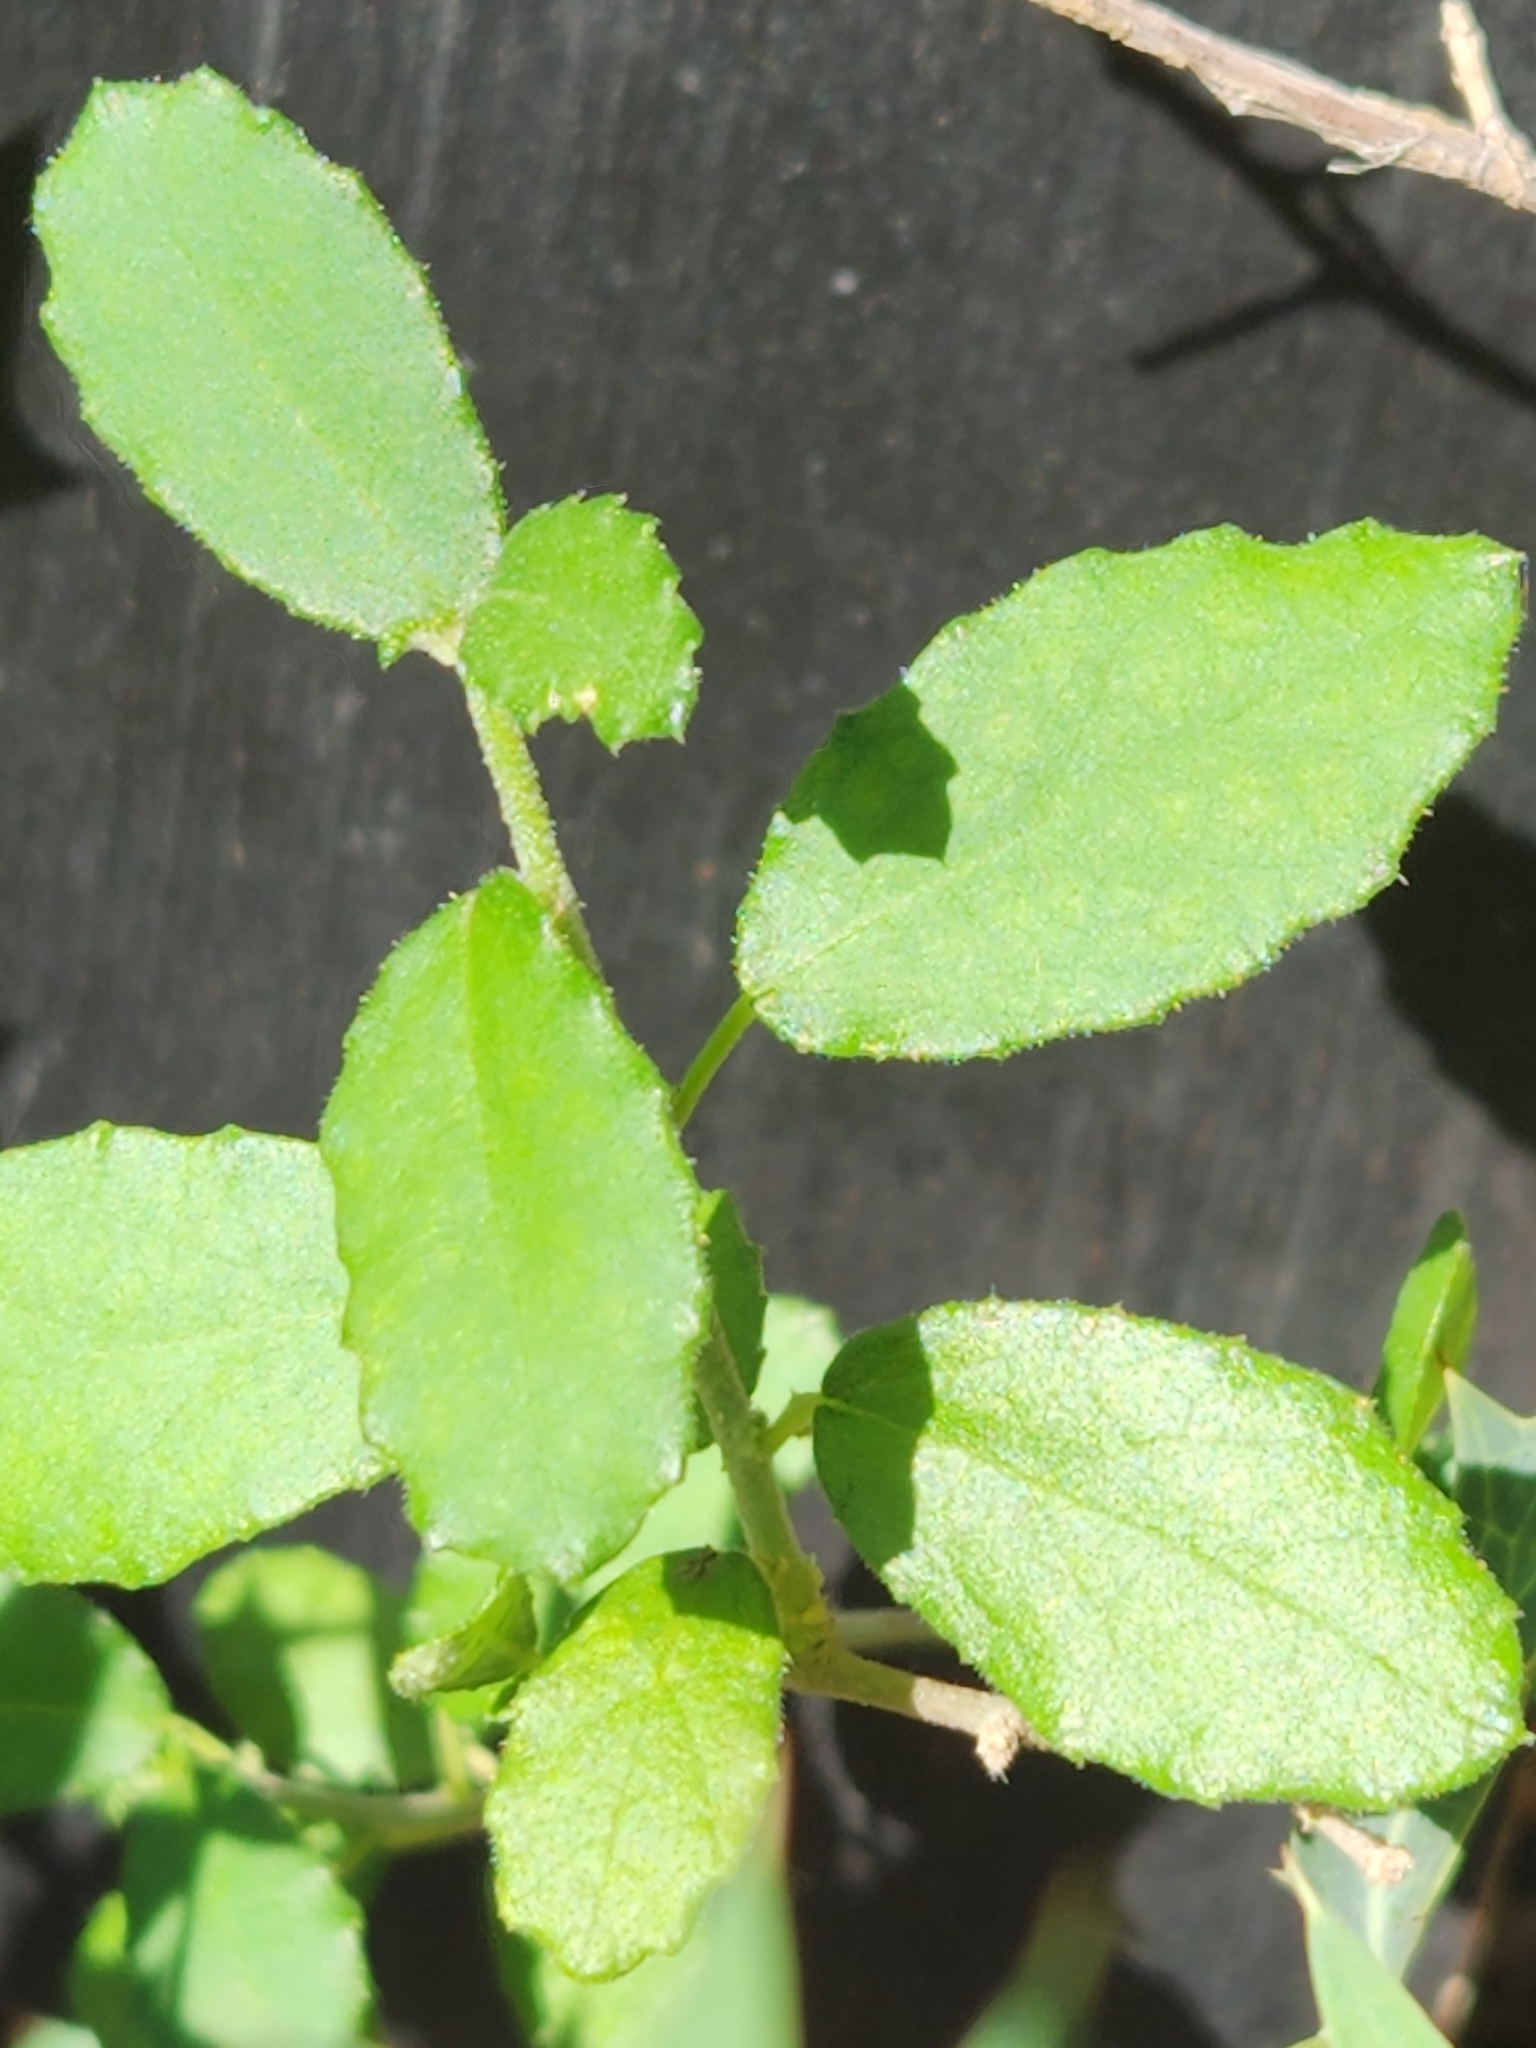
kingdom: Plantae
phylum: Tracheophyta
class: Magnoliopsida
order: Malpighiales
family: Euphorbiaceae
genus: Bernardia
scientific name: Bernardia myricifolia
